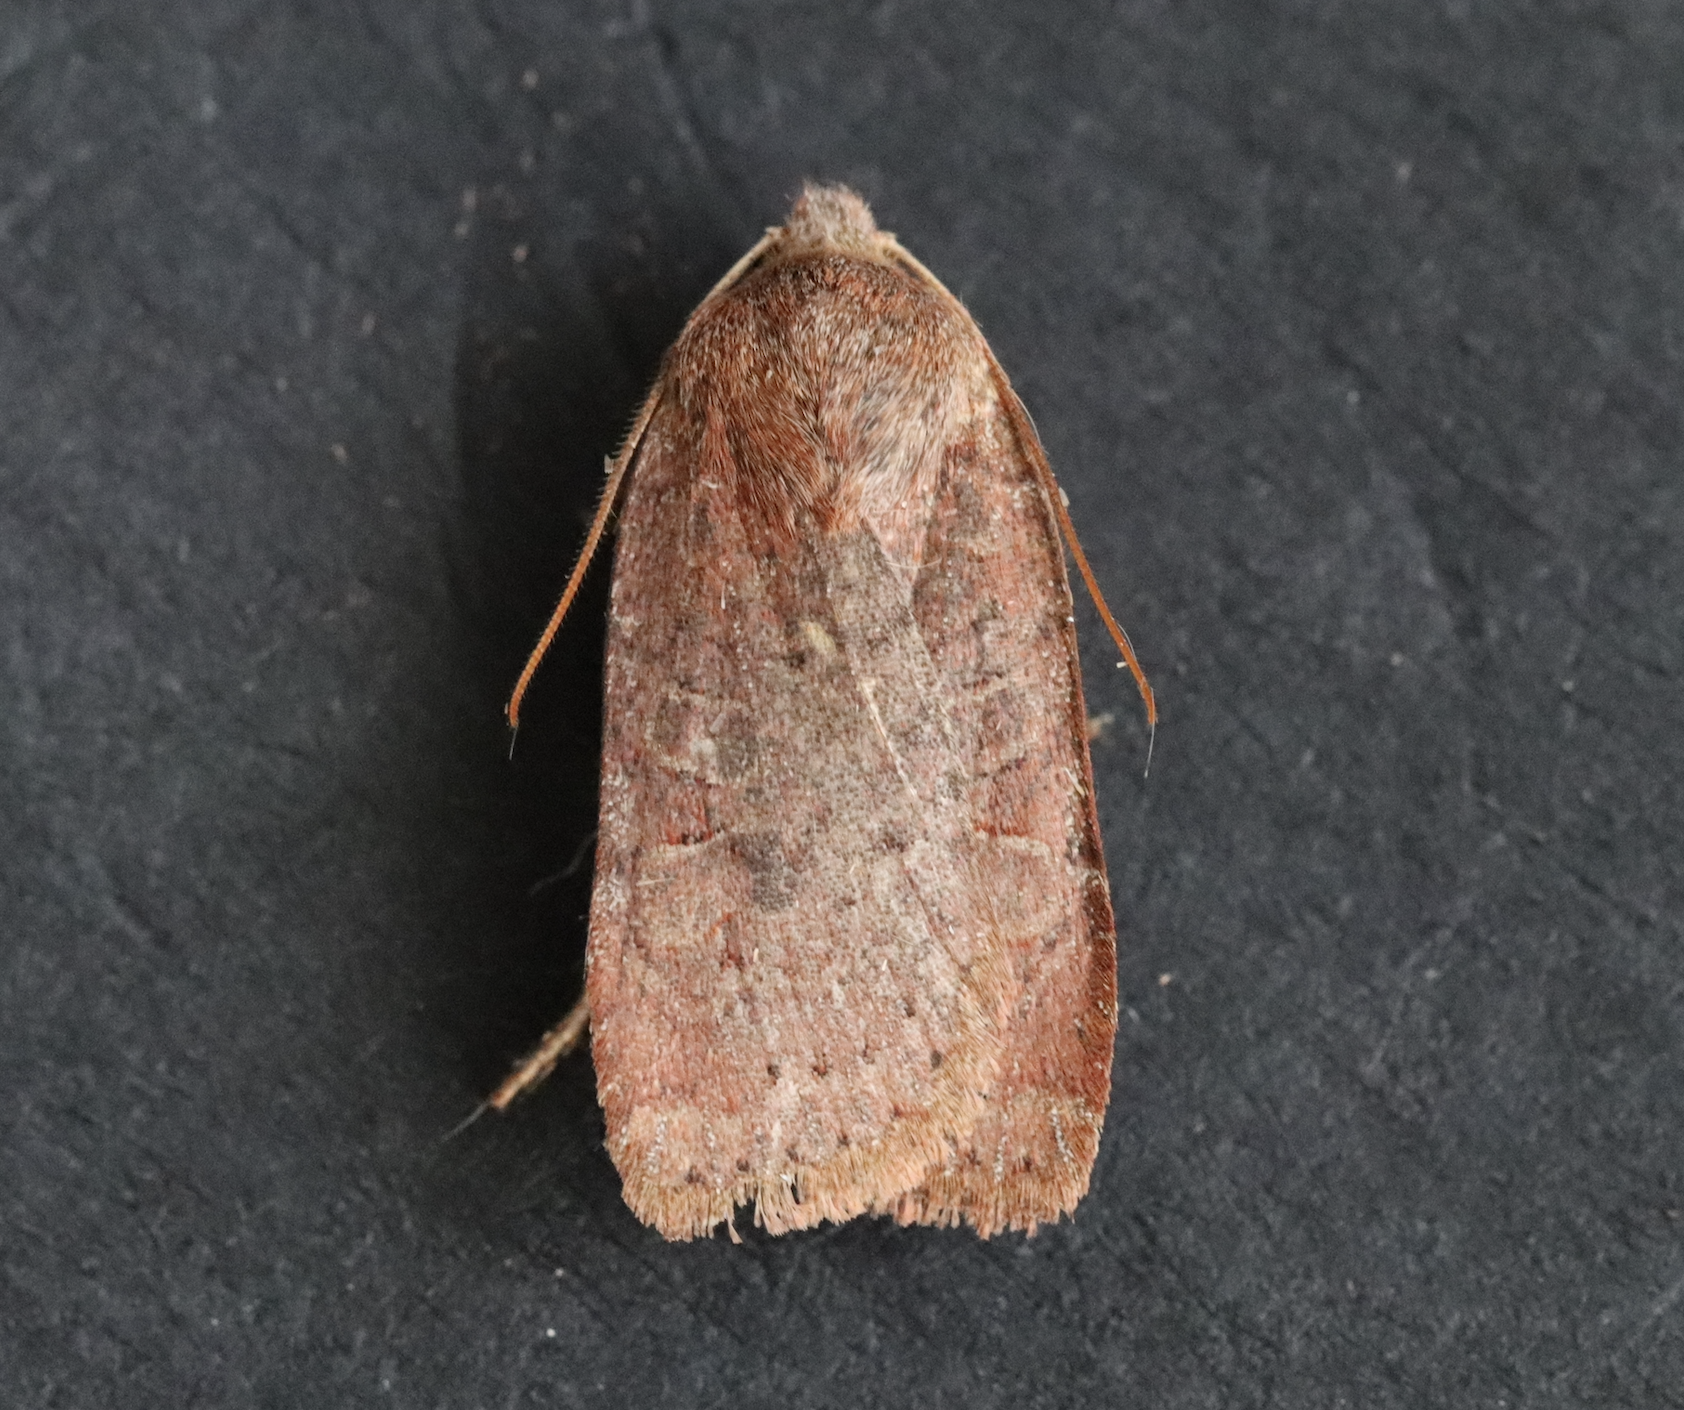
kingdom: Animalia
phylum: Arthropoda
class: Insecta
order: Lepidoptera
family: Noctuidae
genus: Conistra
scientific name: Conistra vaccinii
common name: Chestnut
